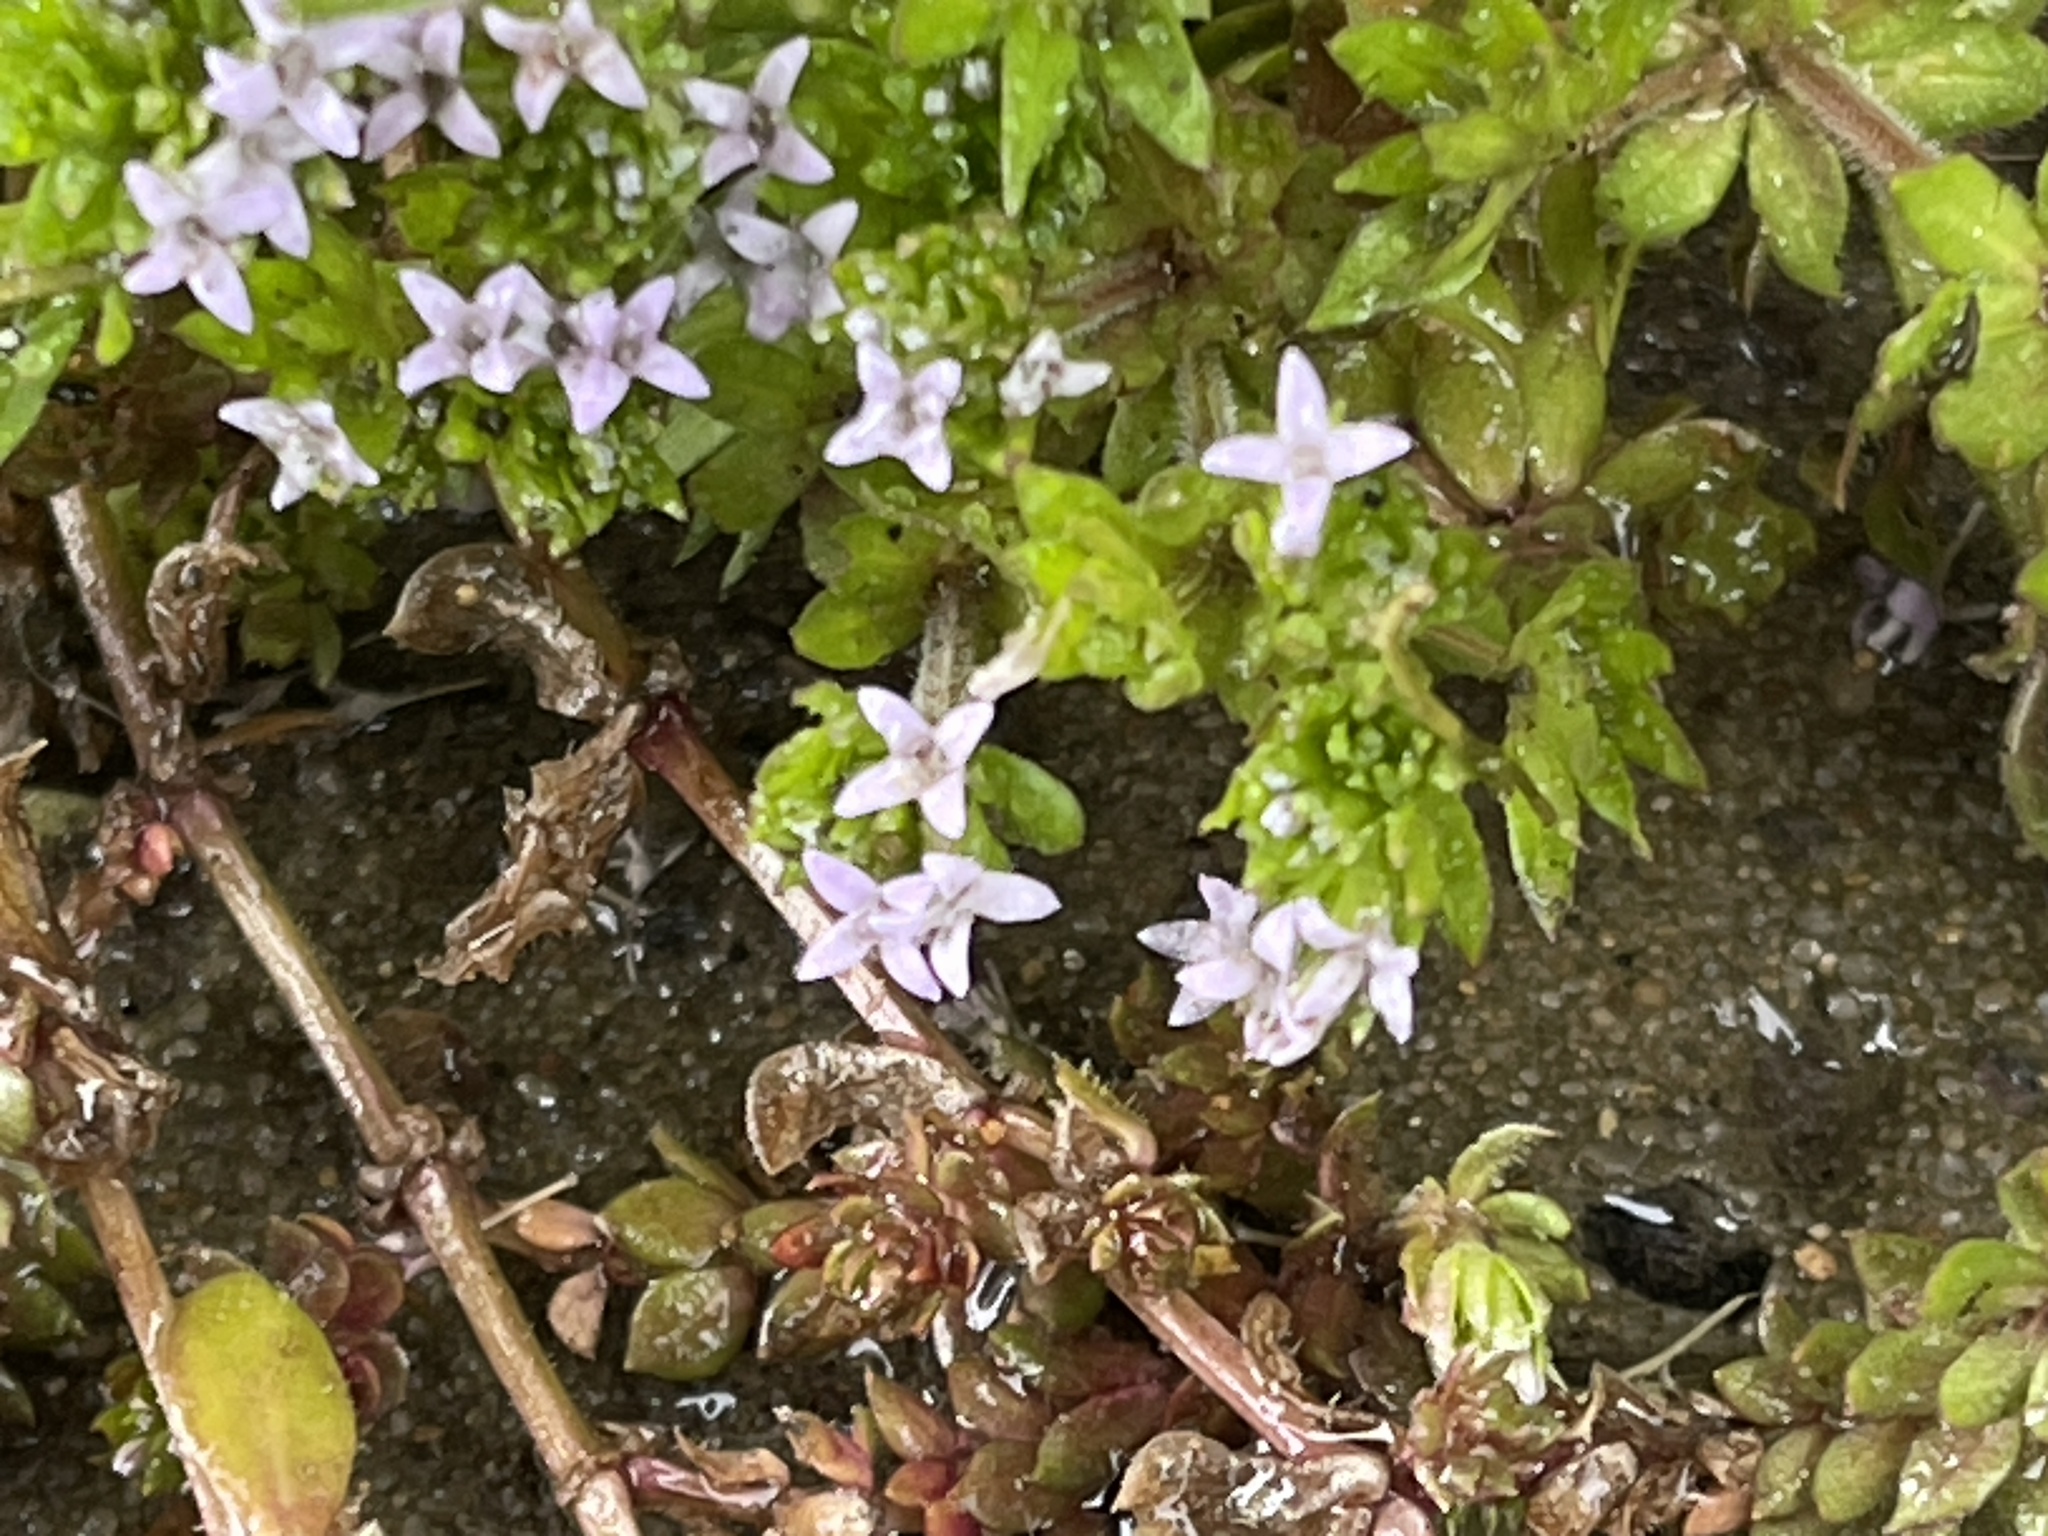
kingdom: Plantae
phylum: Tracheophyta
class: Magnoliopsida
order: Gentianales
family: Rubiaceae
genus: Sherardia
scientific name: Sherardia arvensis
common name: Field madder
